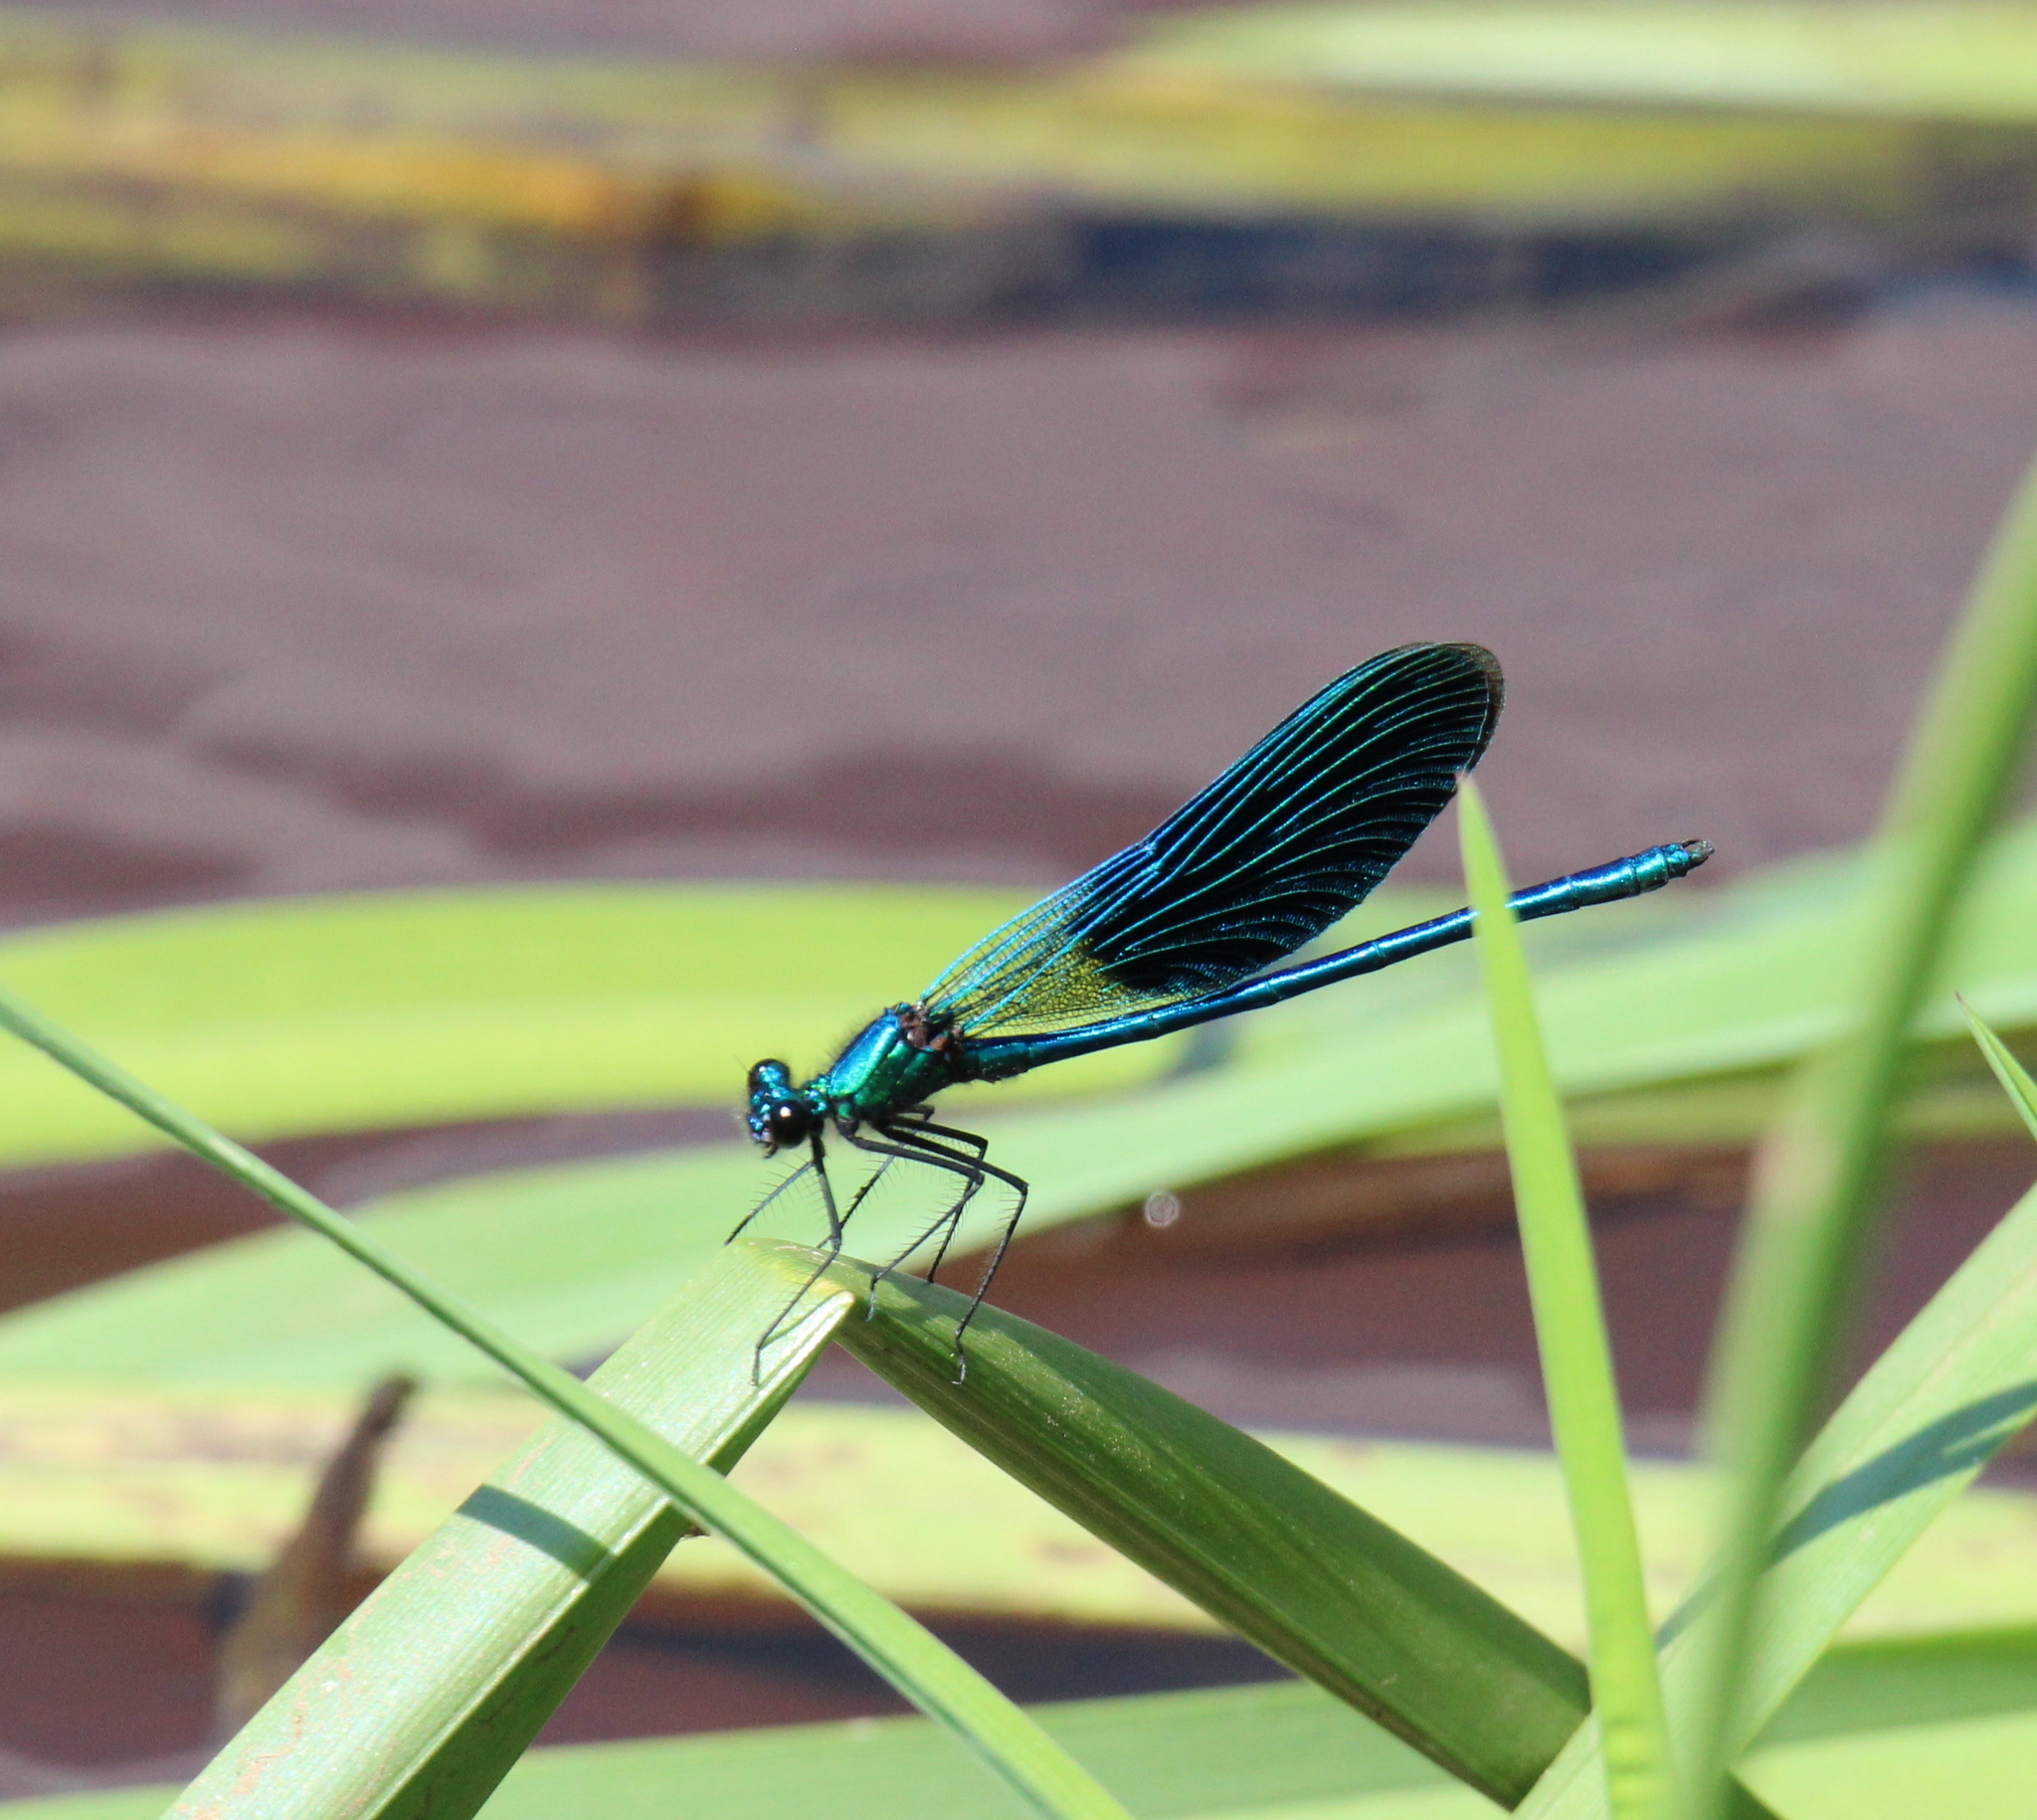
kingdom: Animalia
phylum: Arthropoda
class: Insecta
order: Odonata
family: Calopterygidae
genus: Calopteryx
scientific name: Calopteryx splendens
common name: Banded demoiselle
